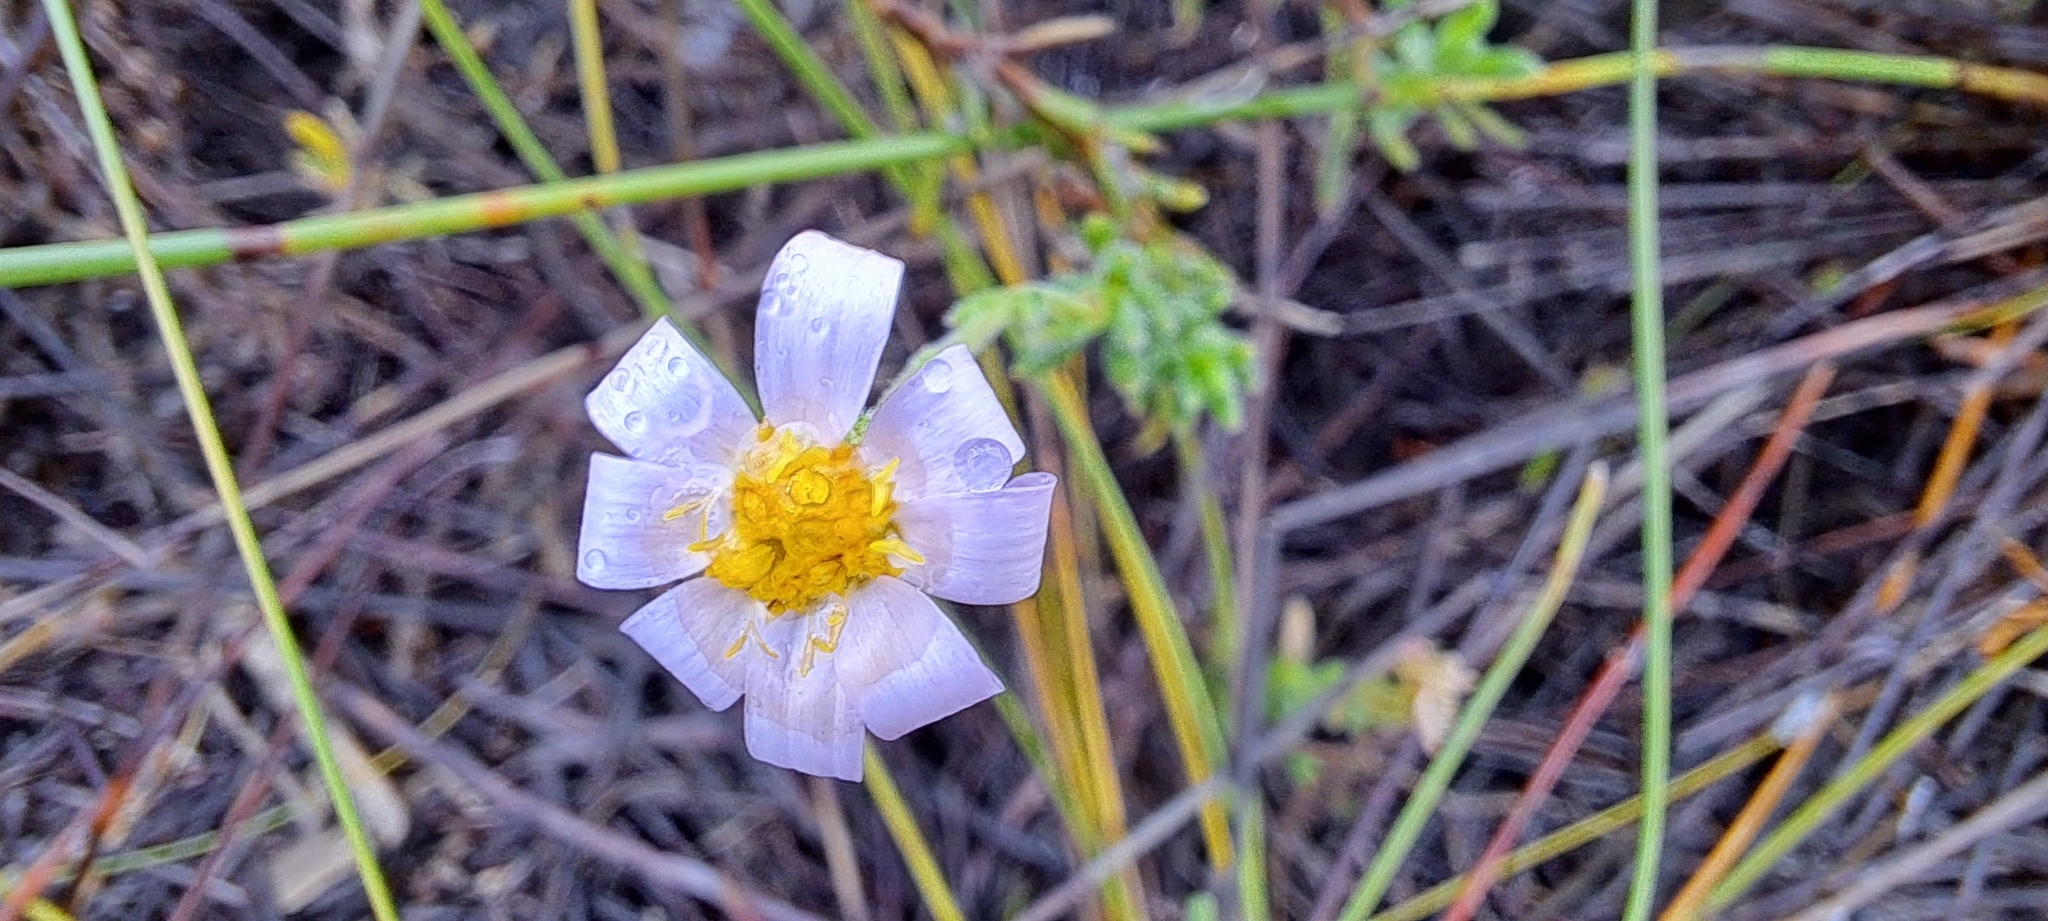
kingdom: Plantae
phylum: Tracheophyta
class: Magnoliopsida
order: Asterales
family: Asteraceae
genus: Zyrphelis
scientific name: Zyrphelis foliosa
